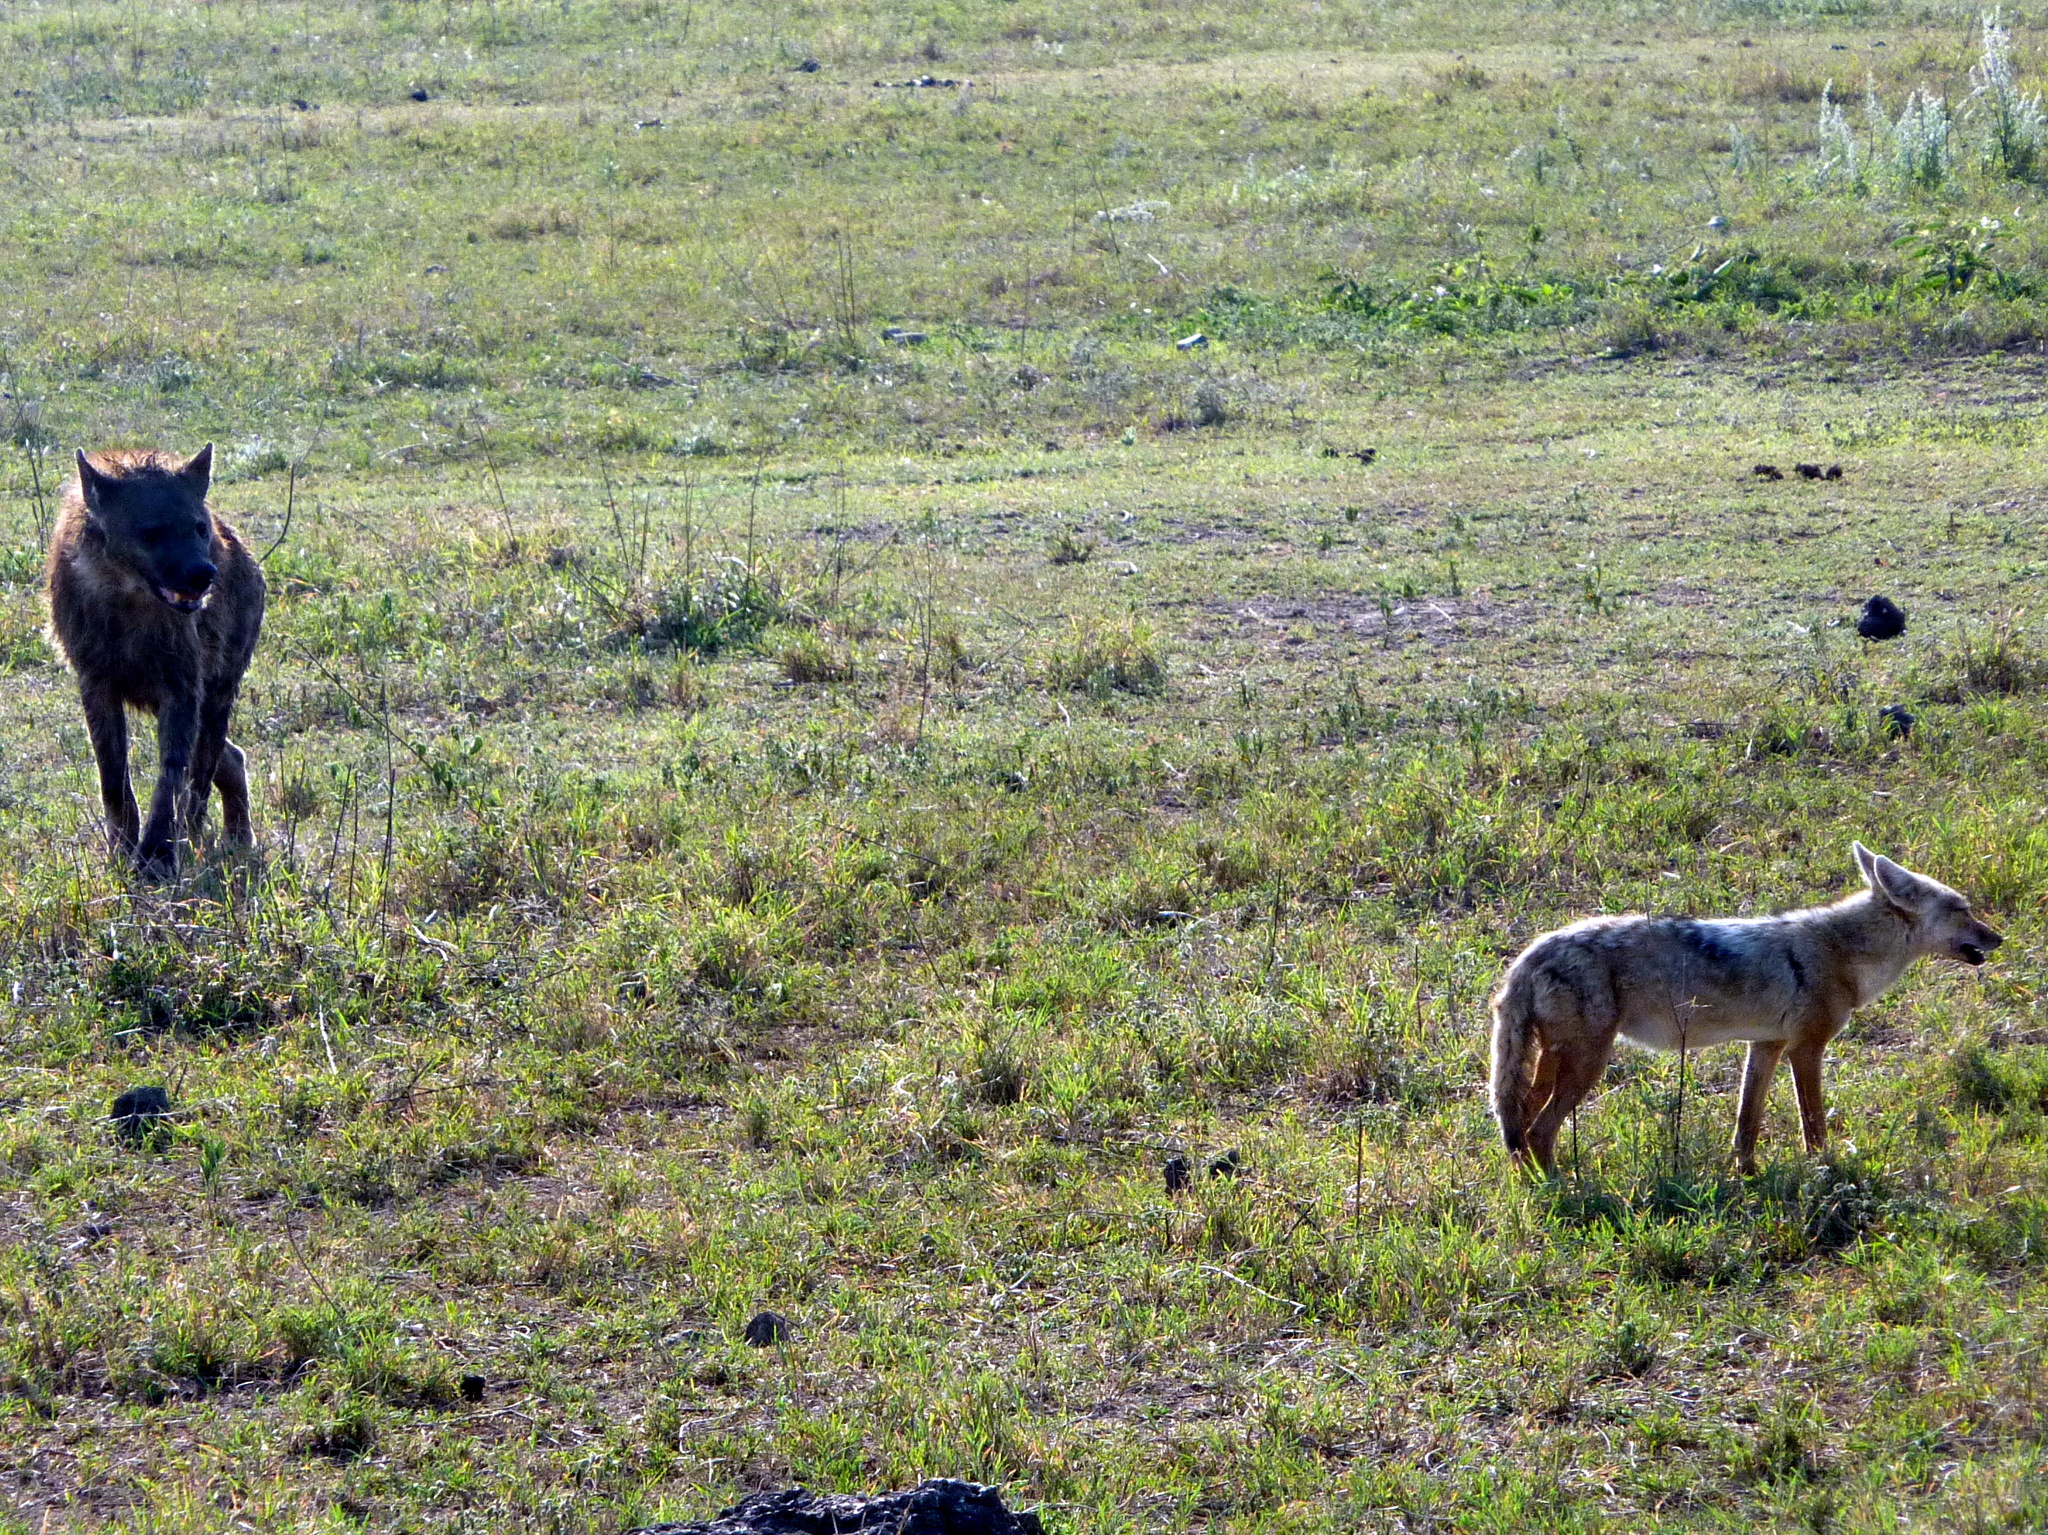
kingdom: Animalia
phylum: Chordata
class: Mammalia
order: Carnivora
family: Canidae
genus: Canis
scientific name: Canis lupaster
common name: African golden wolf
